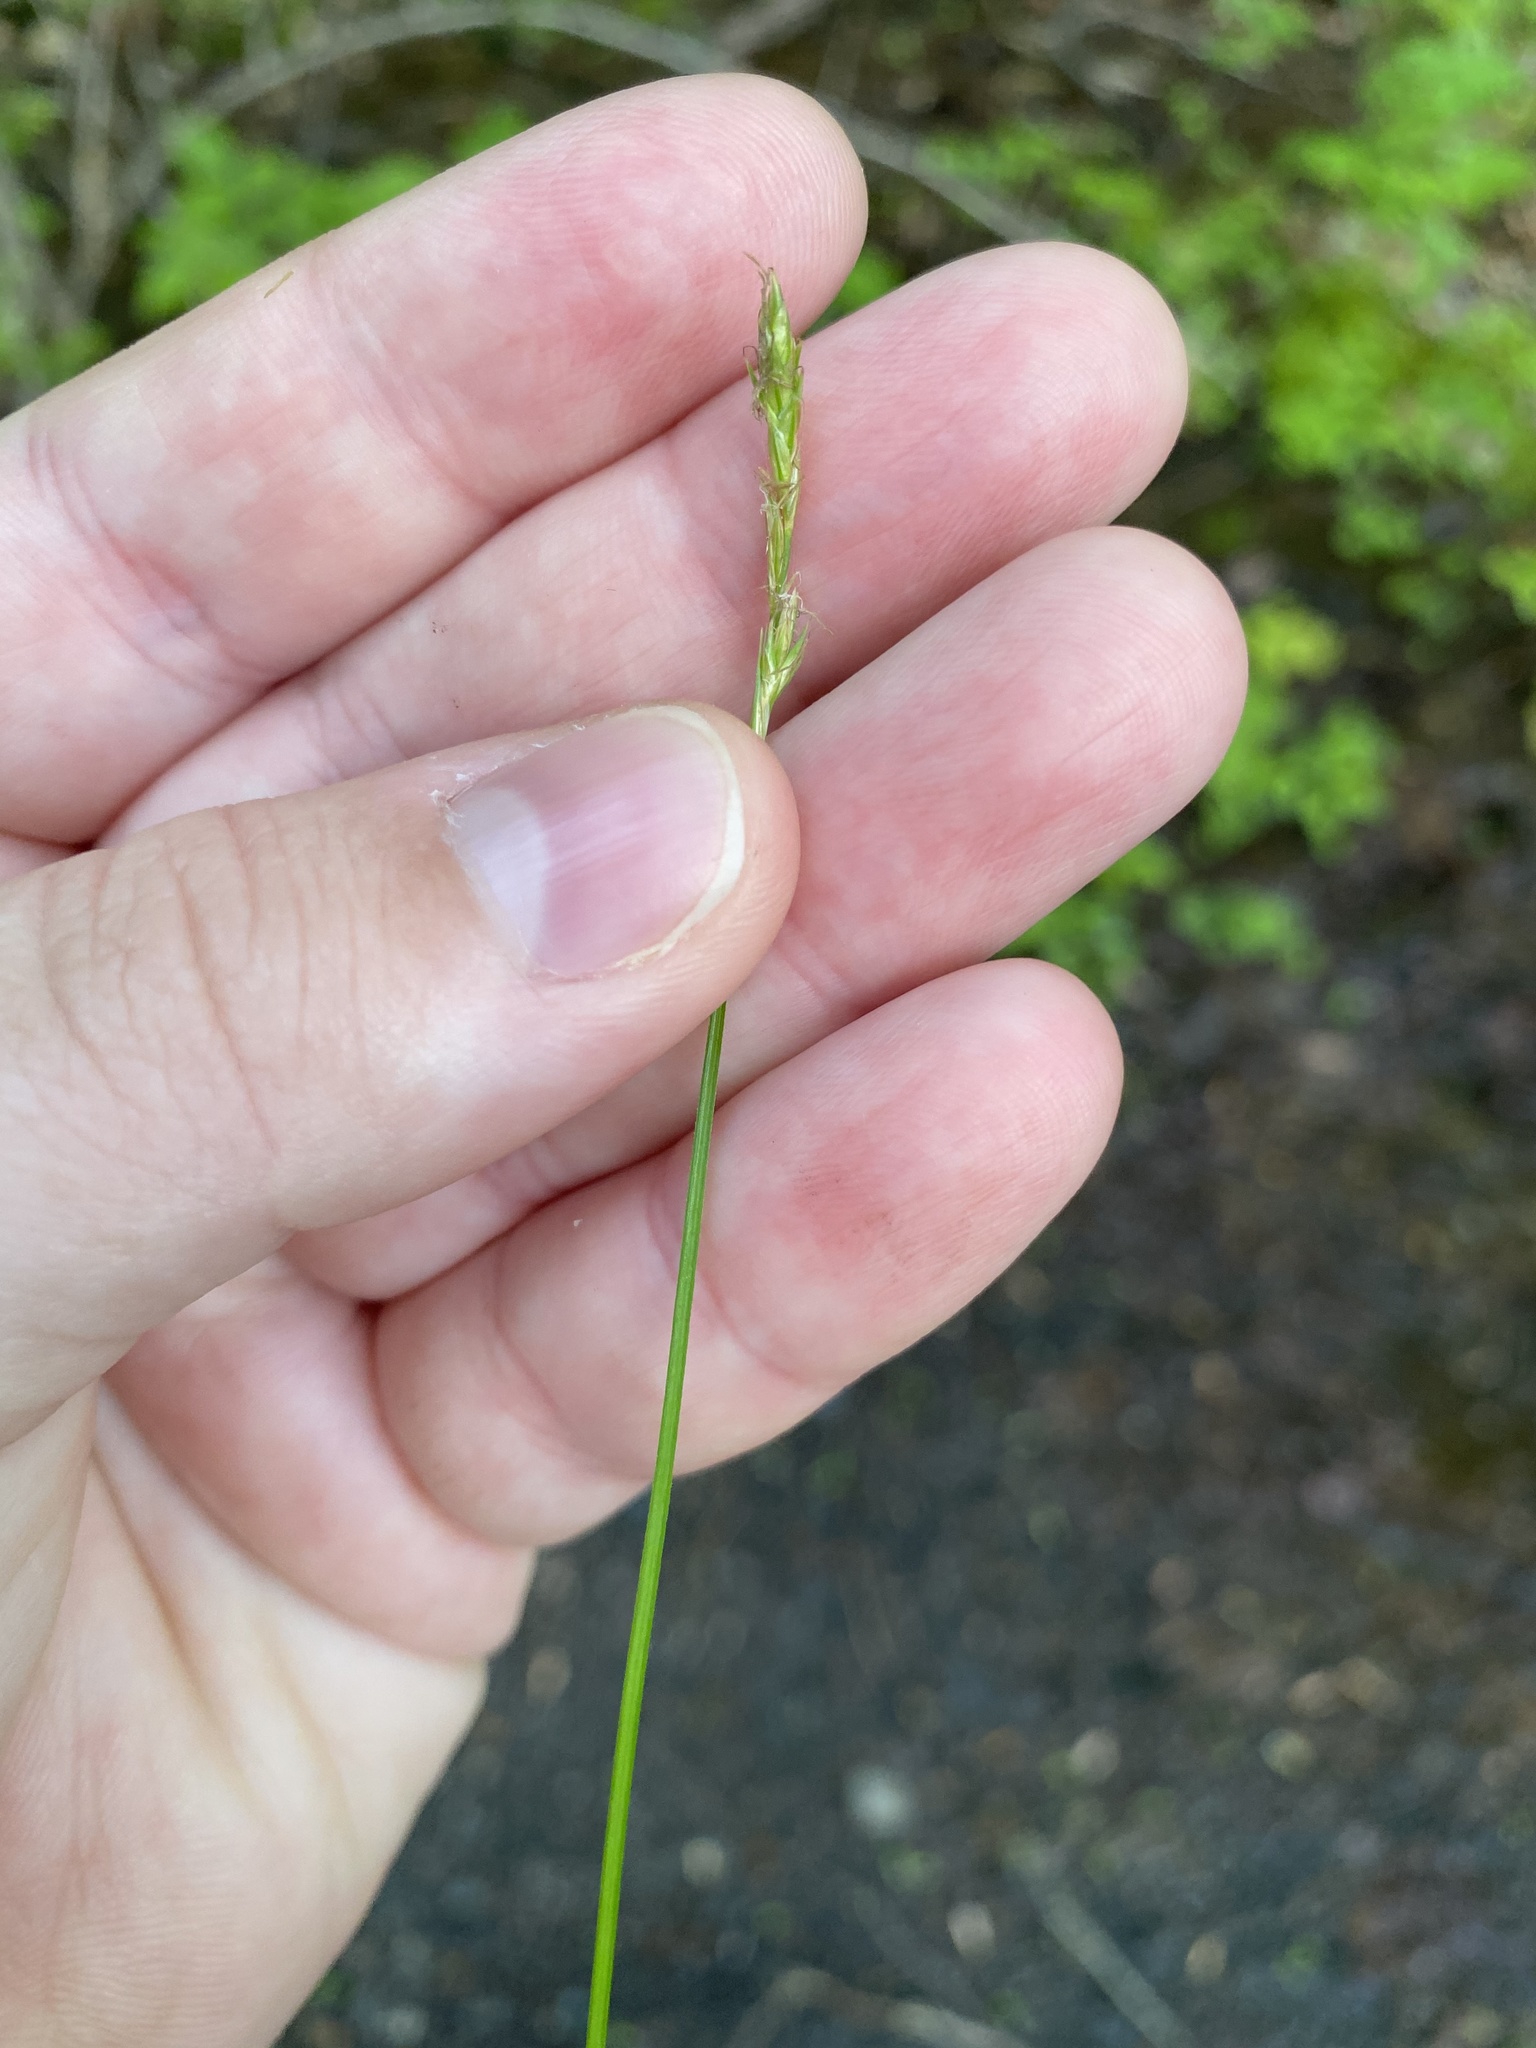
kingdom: Plantae
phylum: Tracheophyta
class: Liliopsida
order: Poales
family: Cyperaceae
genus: Carex
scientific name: Carex bromoides
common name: Brome hummock sedge
